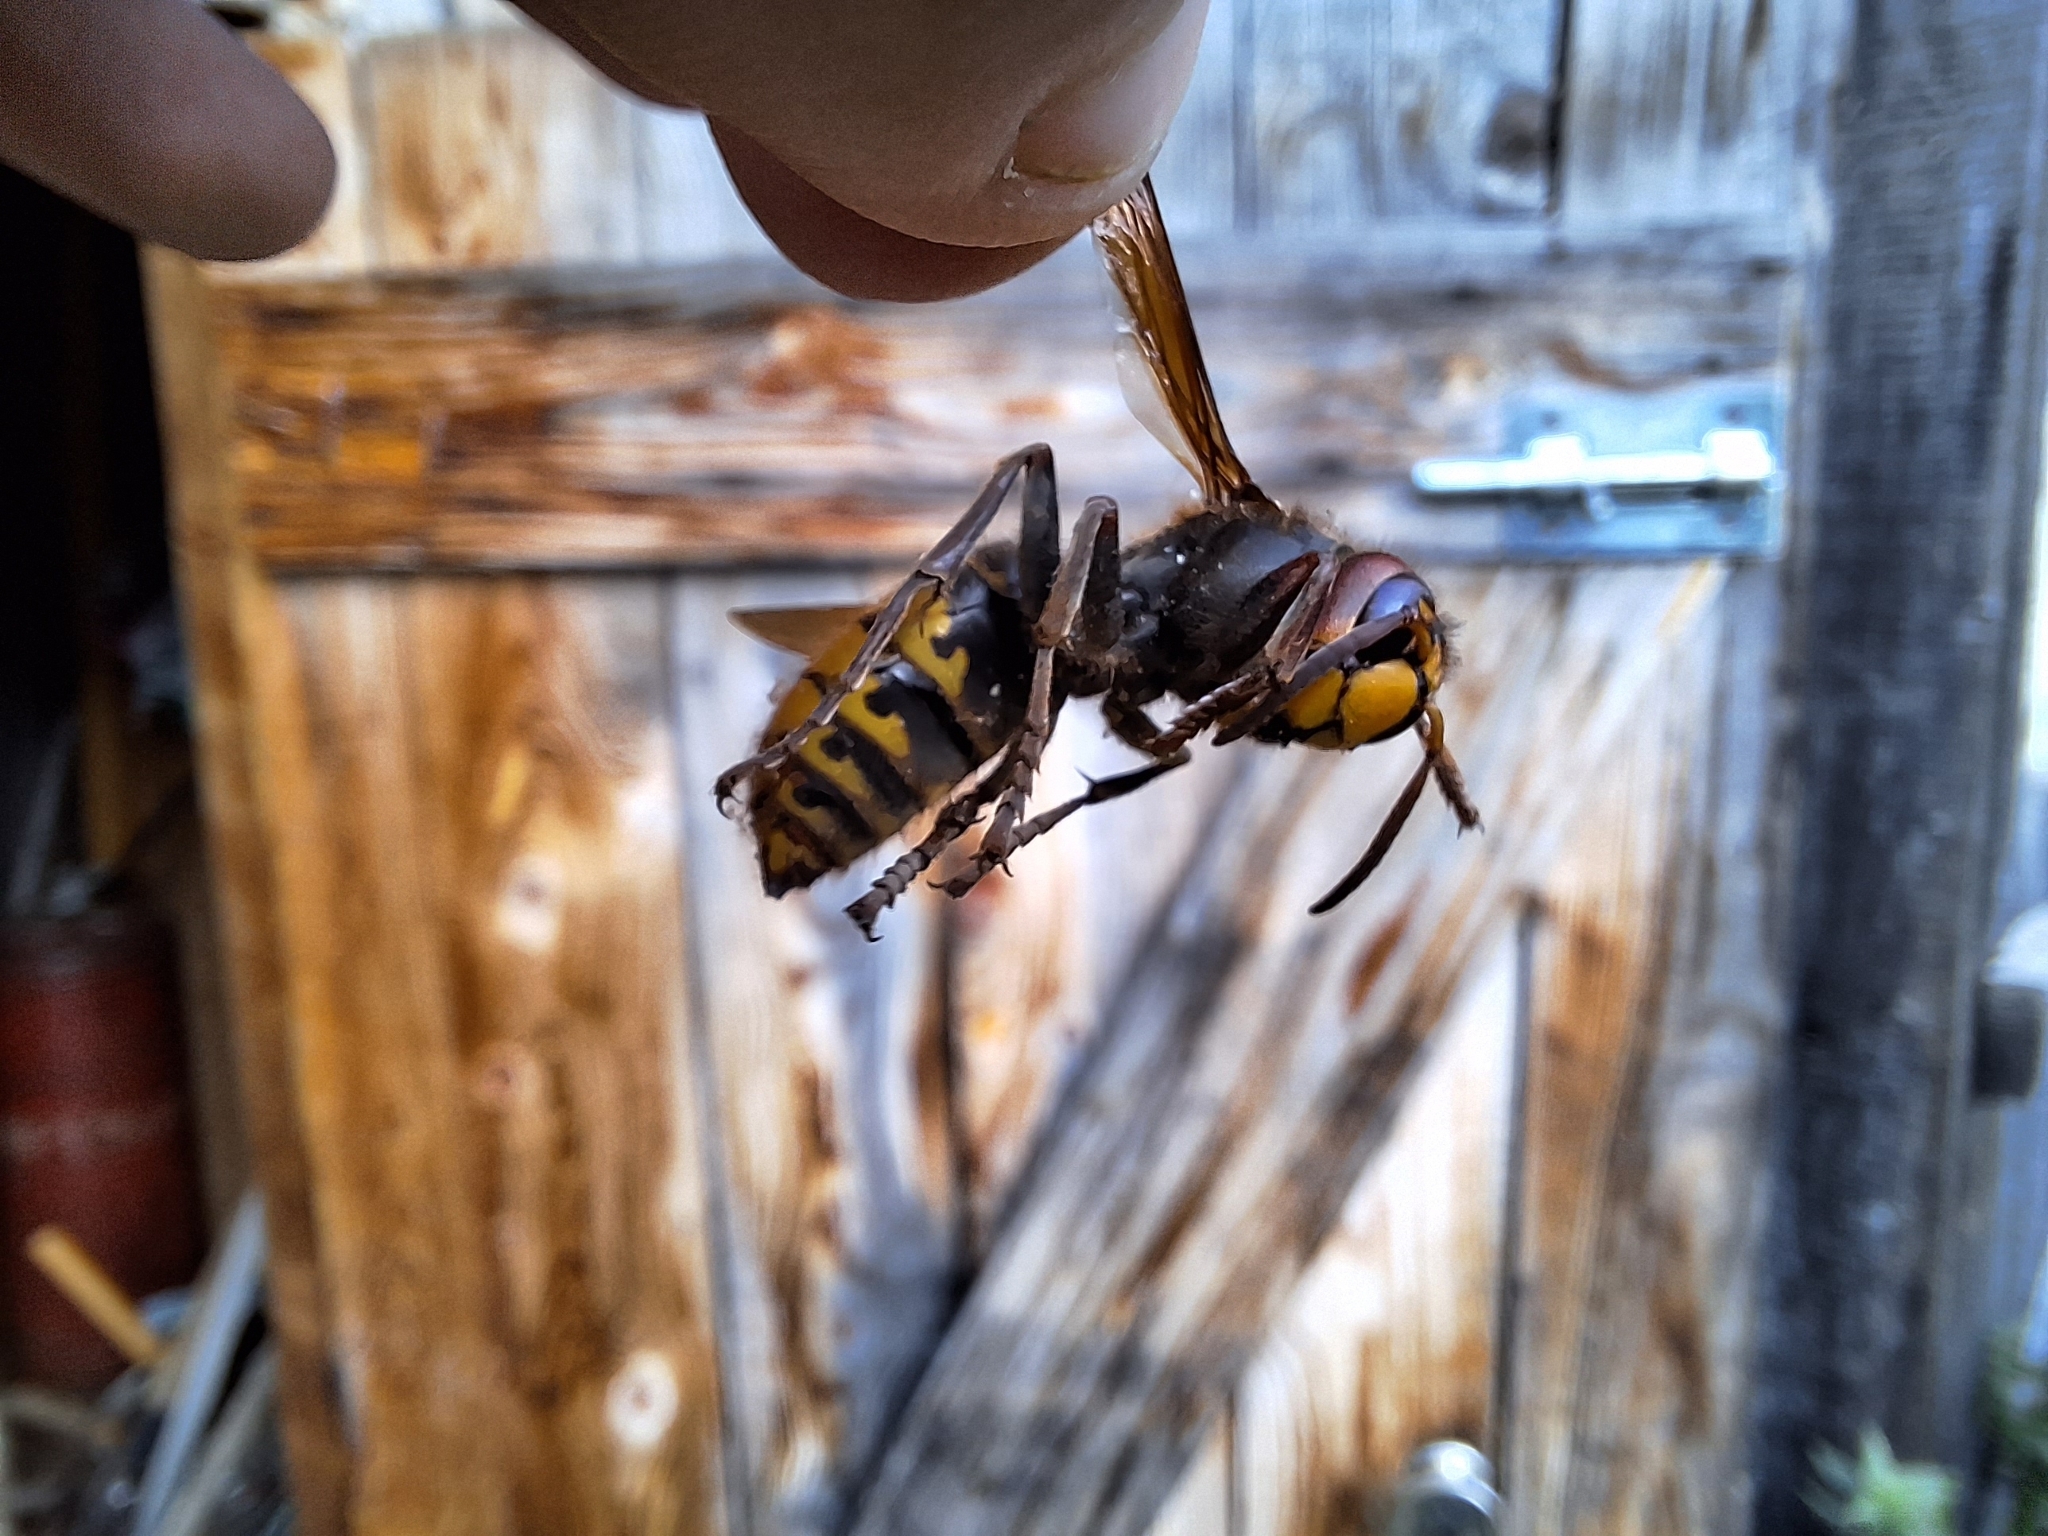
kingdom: Animalia
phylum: Arthropoda
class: Insecta
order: Hymenoptera
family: Vespidae
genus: Vespa
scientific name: Vespa crabro
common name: Hornet
